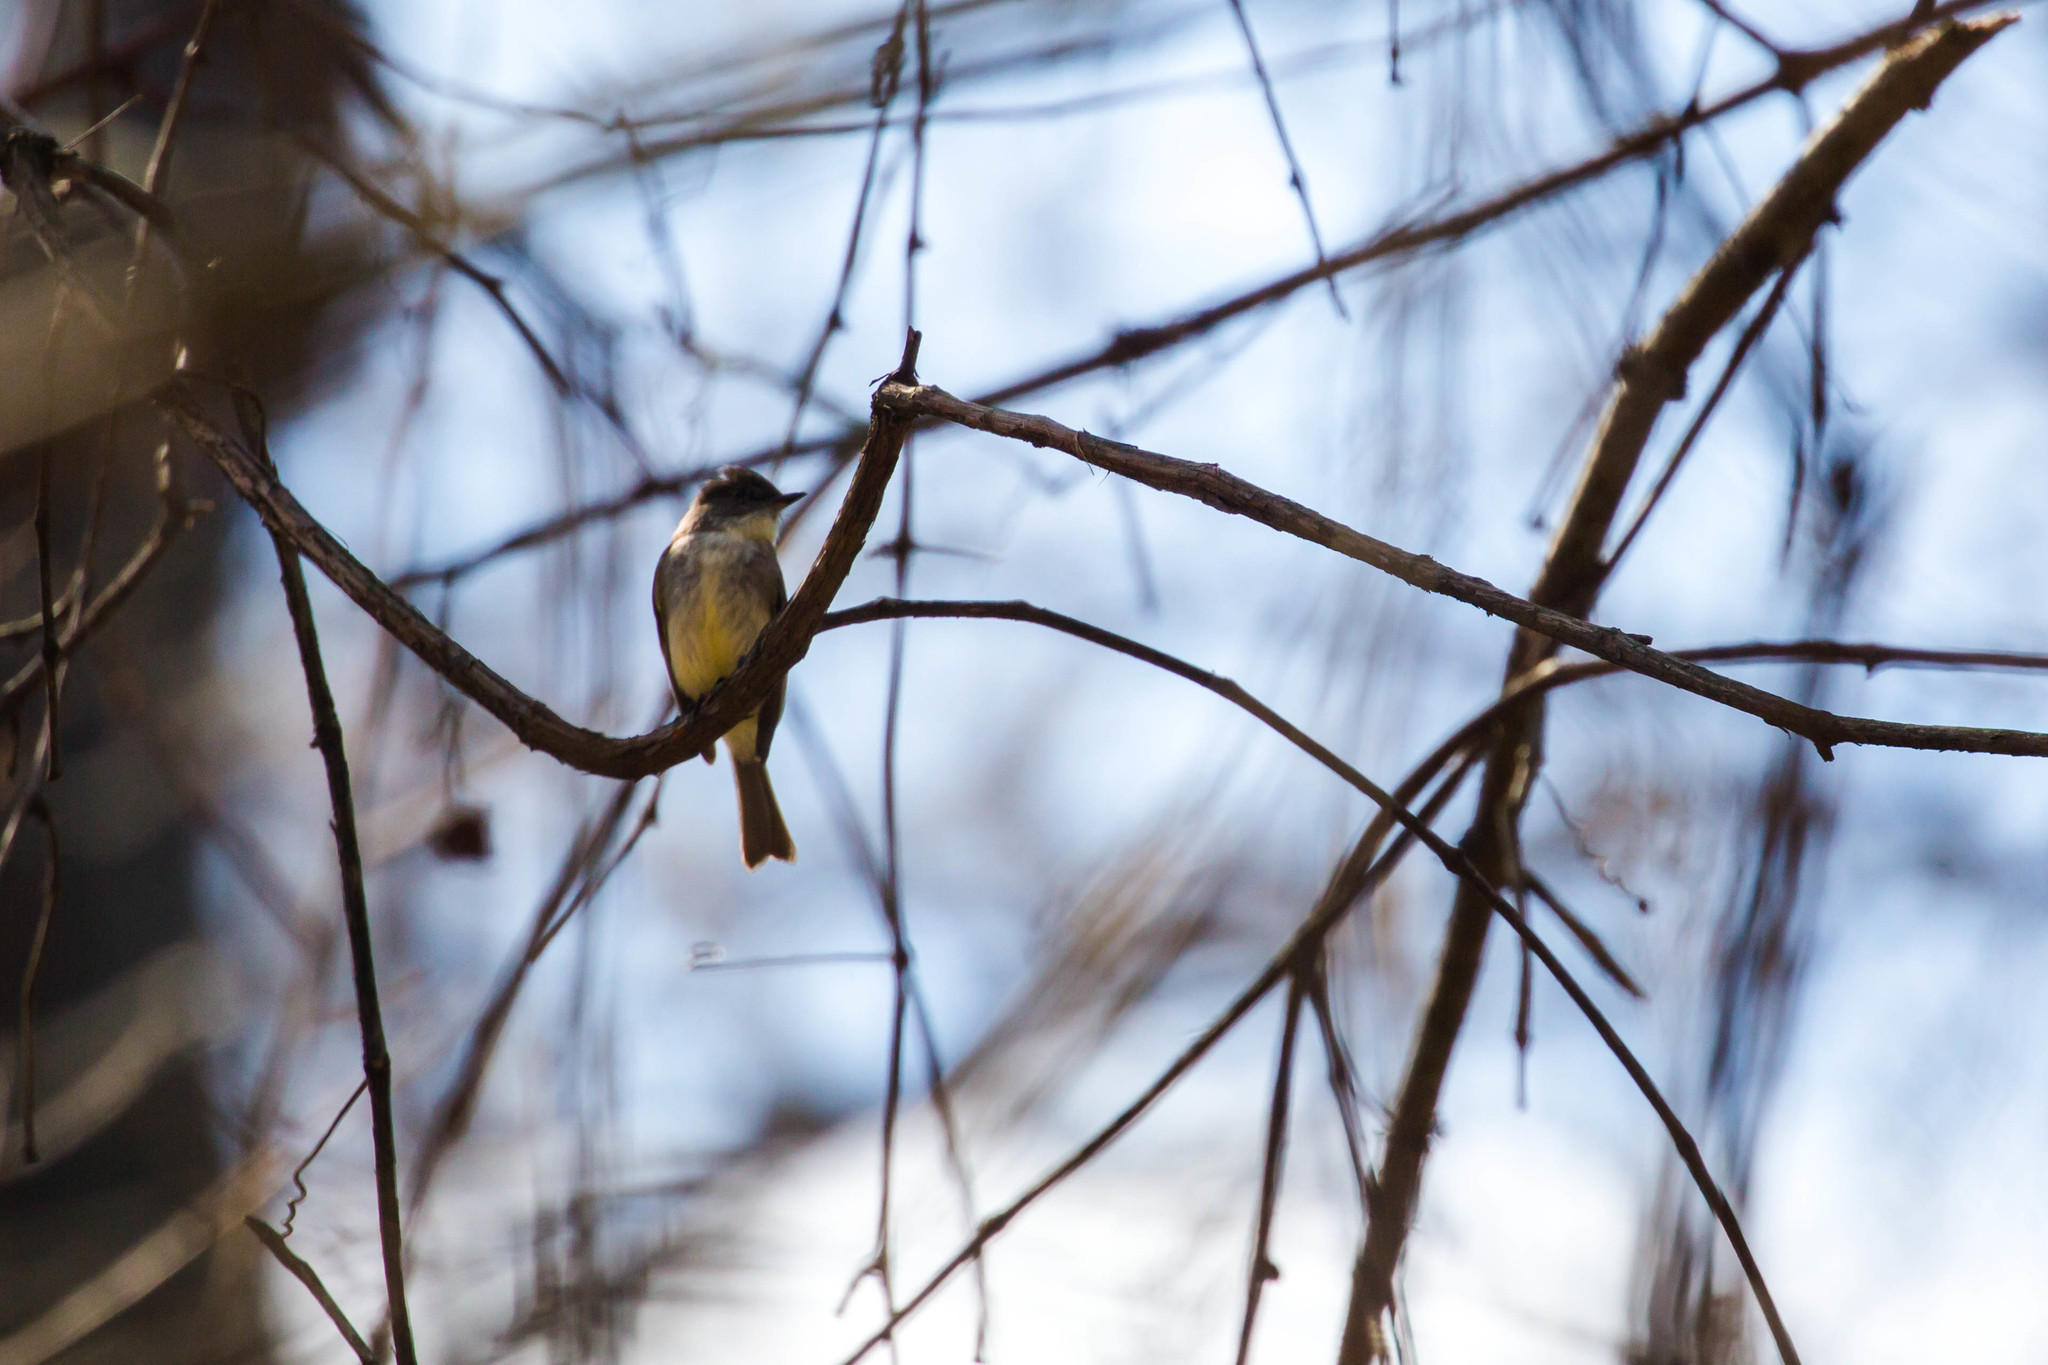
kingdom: Animalia
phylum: Chordata
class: Aves
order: Passeriformes
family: Tyrannidae
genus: Sayornis
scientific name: Sayornis phoebe
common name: Eastern phoebe
